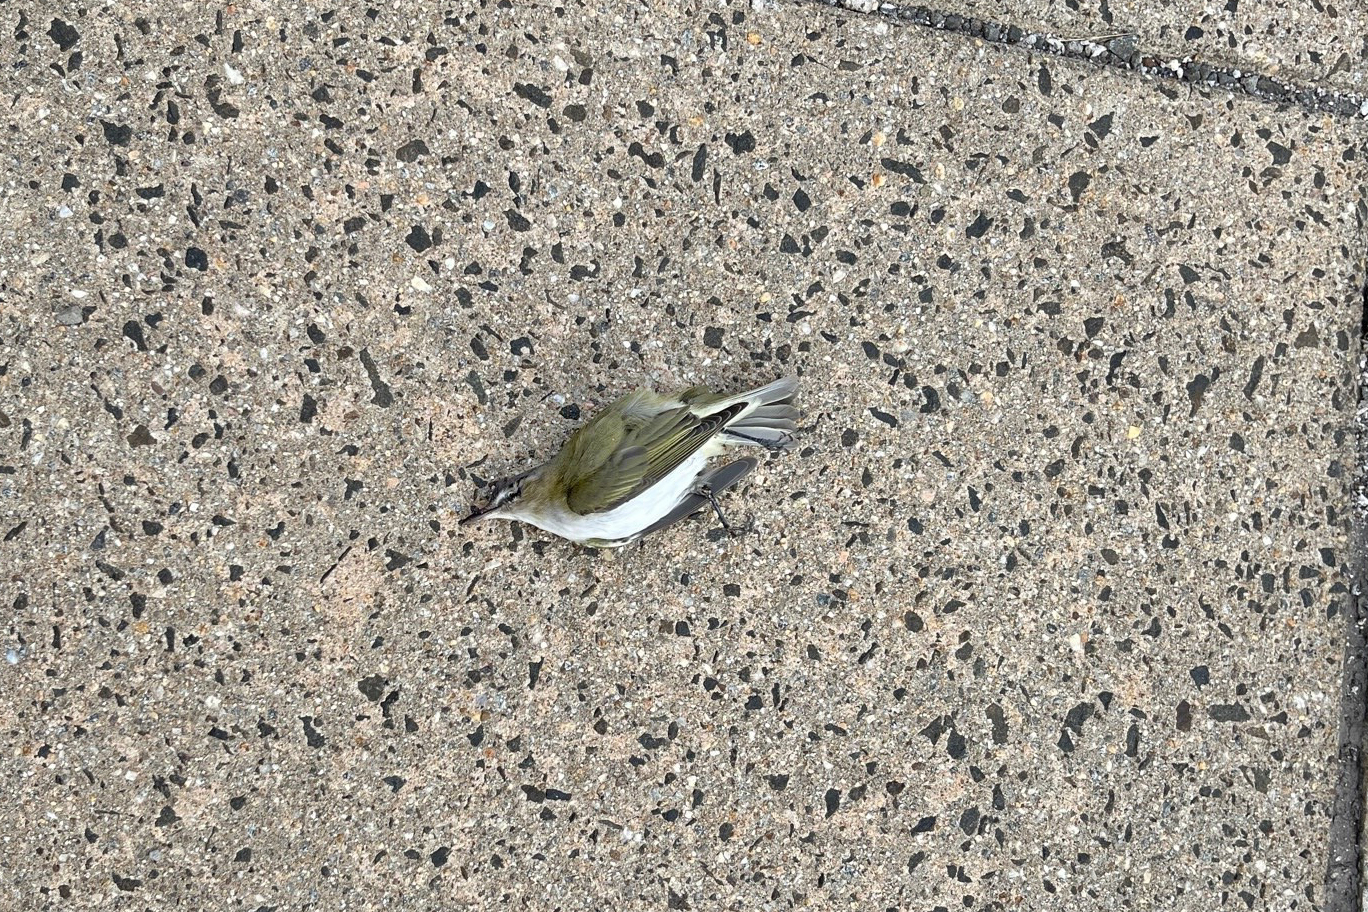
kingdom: Animalia
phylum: Chordata
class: Aves
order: Passeriformes
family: Vireonidae
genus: Vireo
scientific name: Vireo olivaceus
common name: Red-eyed vireo
